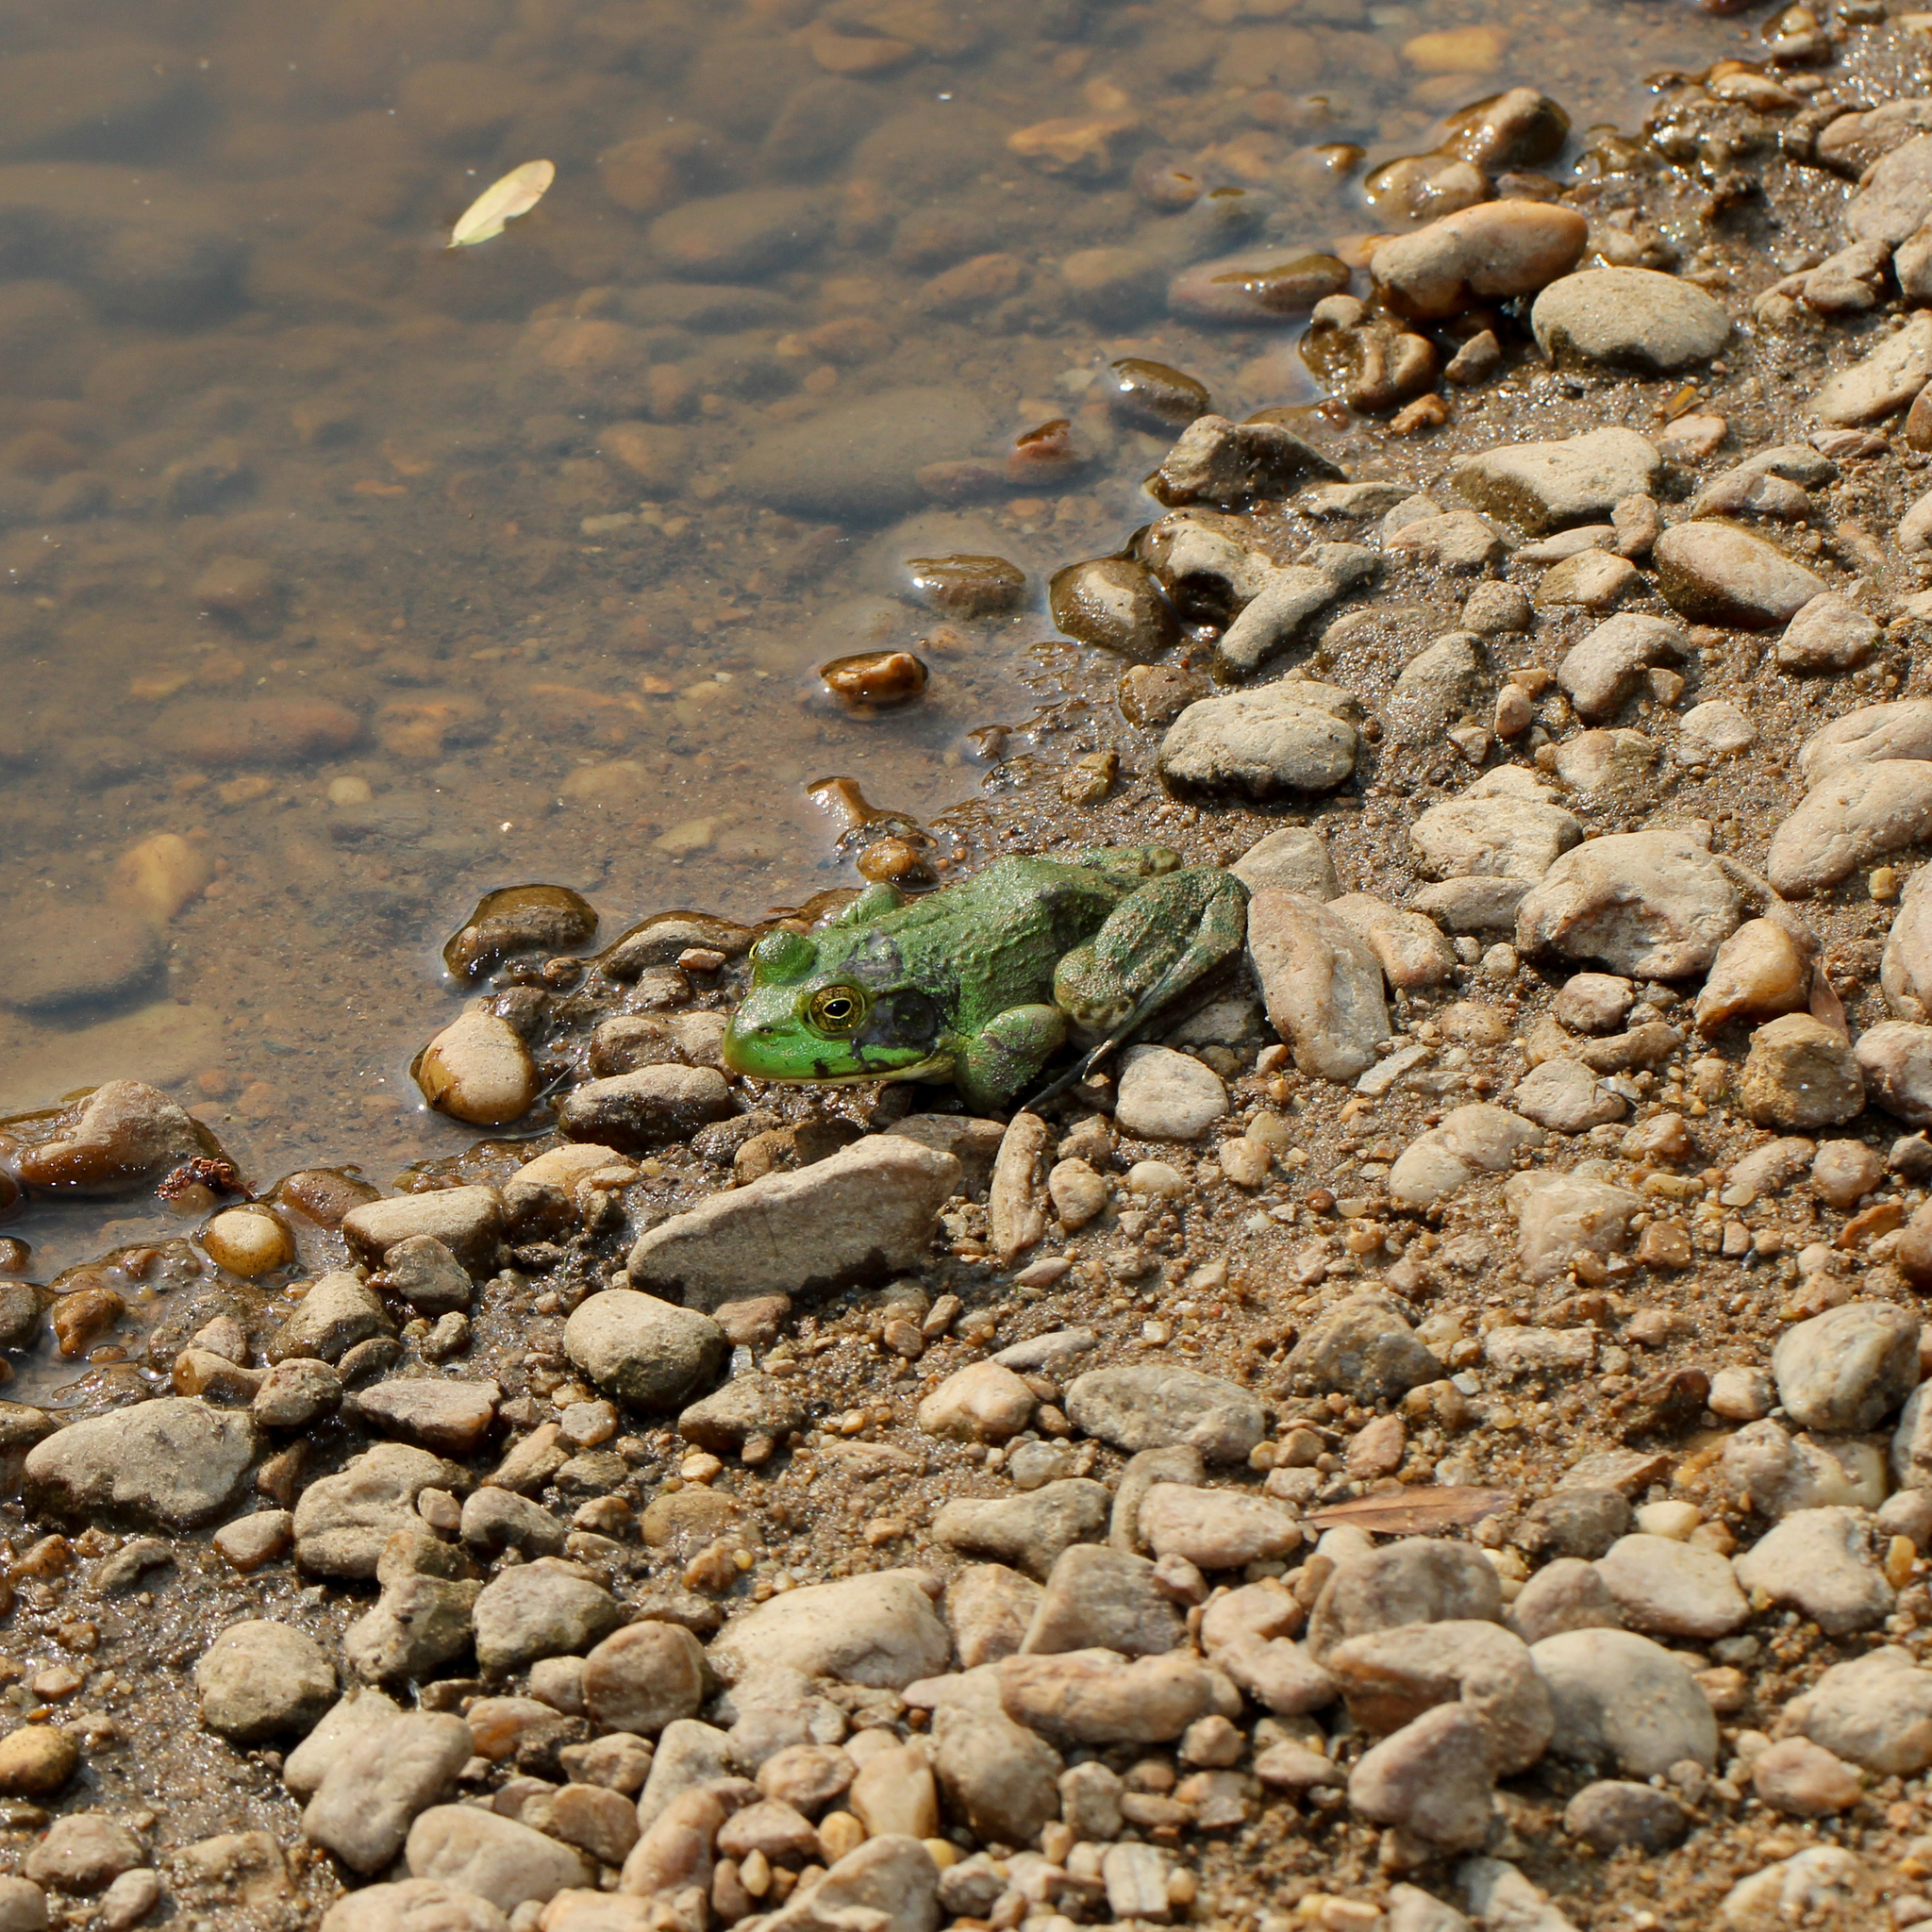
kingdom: Animalia
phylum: Chordata
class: Amphibia
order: Anura
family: Ranidae
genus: Lithobates
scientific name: Lithobates catesbeianus
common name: American bullfrog
